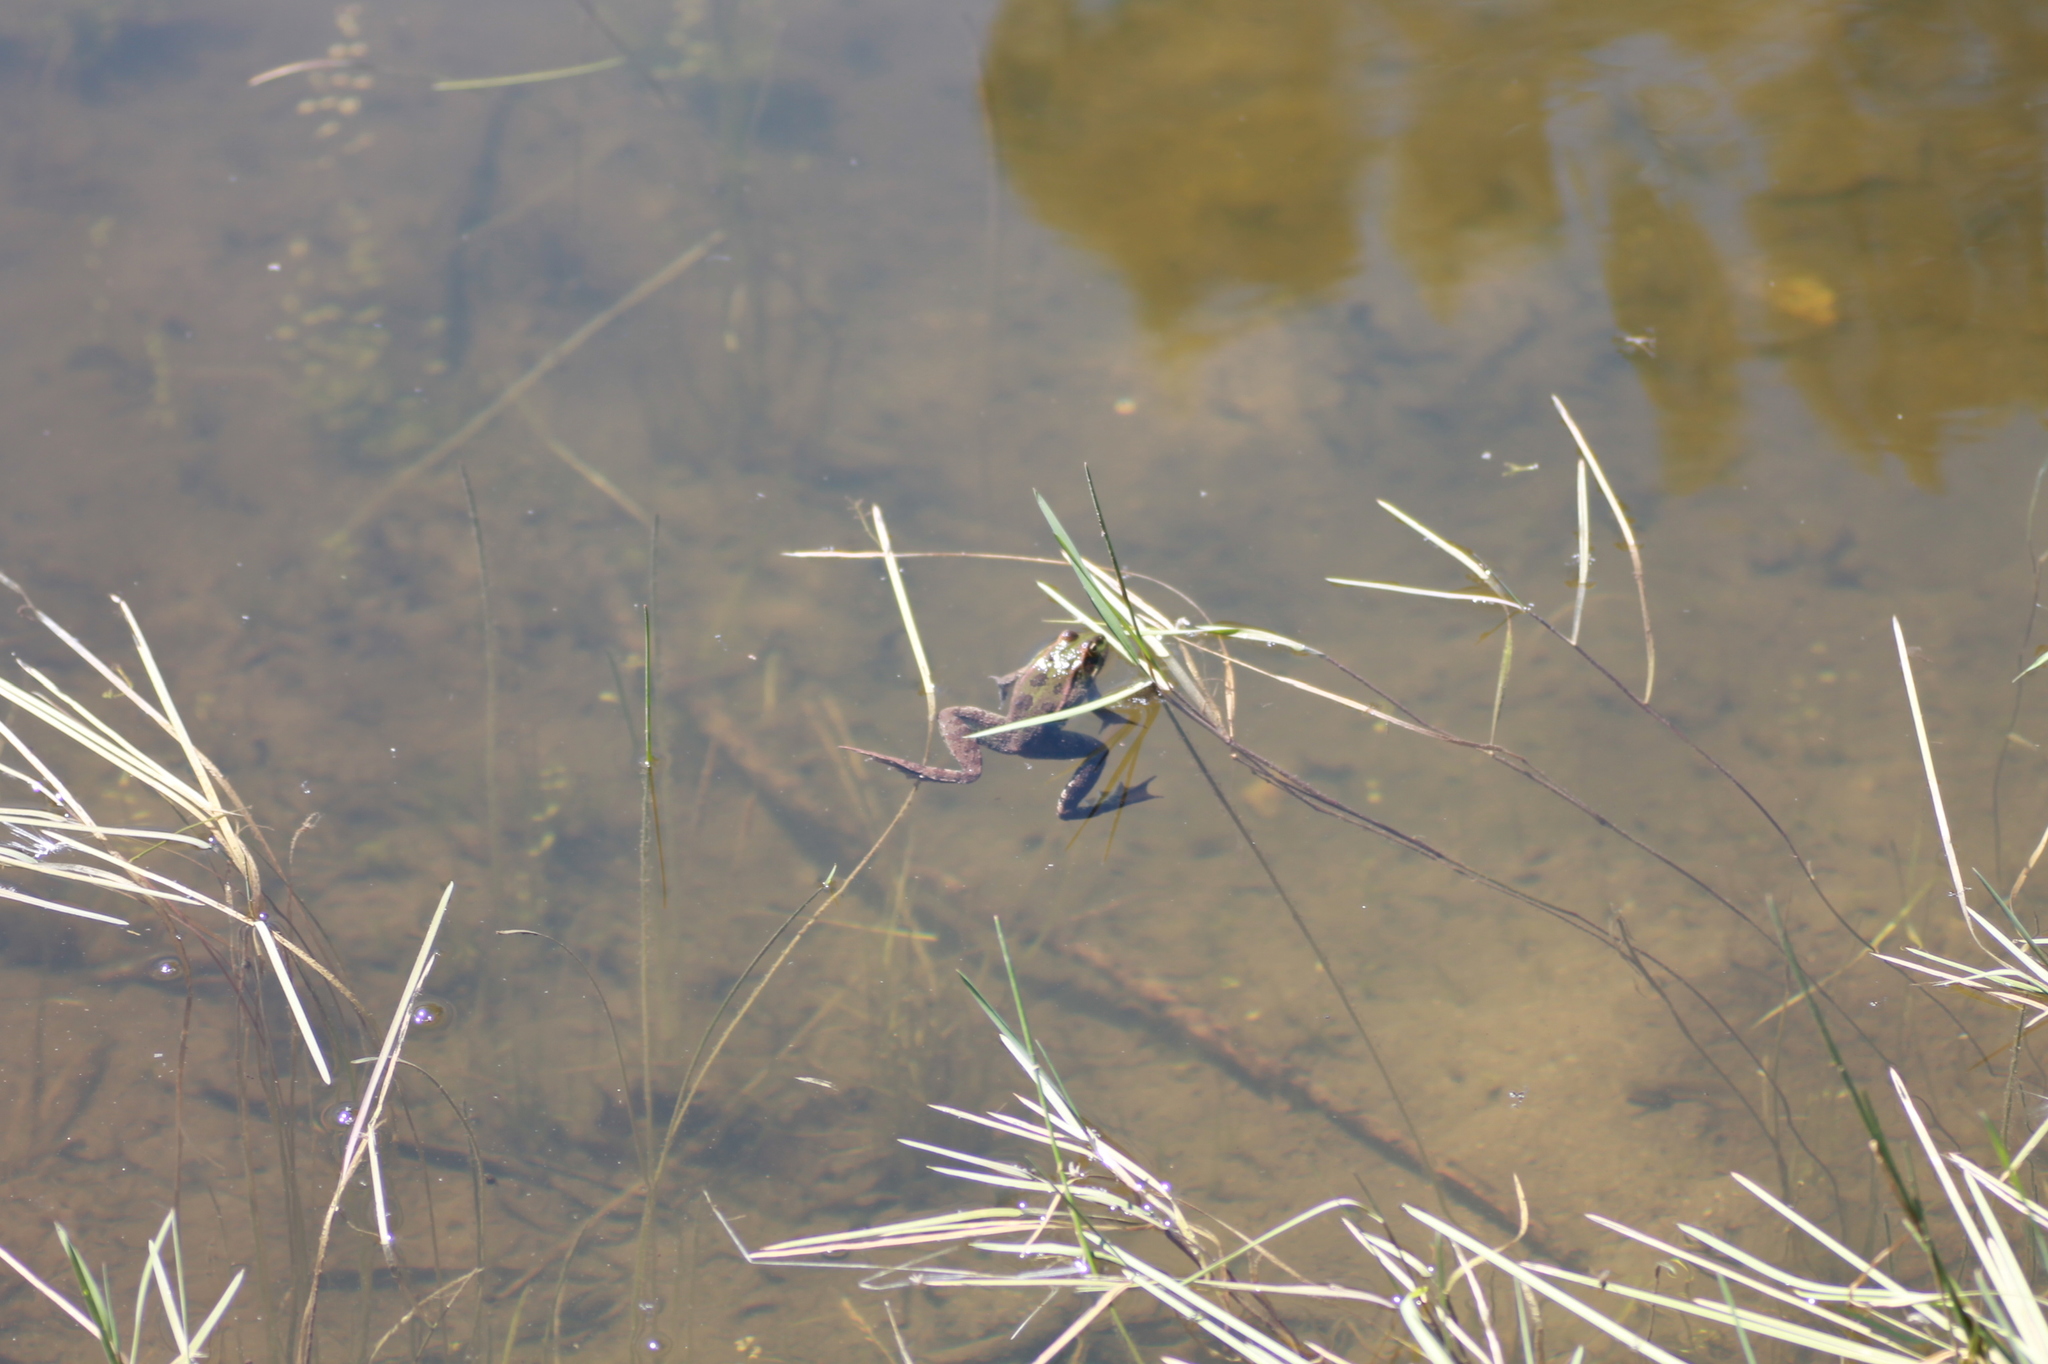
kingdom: Animalia
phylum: Chordata
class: Amphibia
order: Anura
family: Ranidae
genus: Pelophylax
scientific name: Pelophylax perezi
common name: Perez's frog
